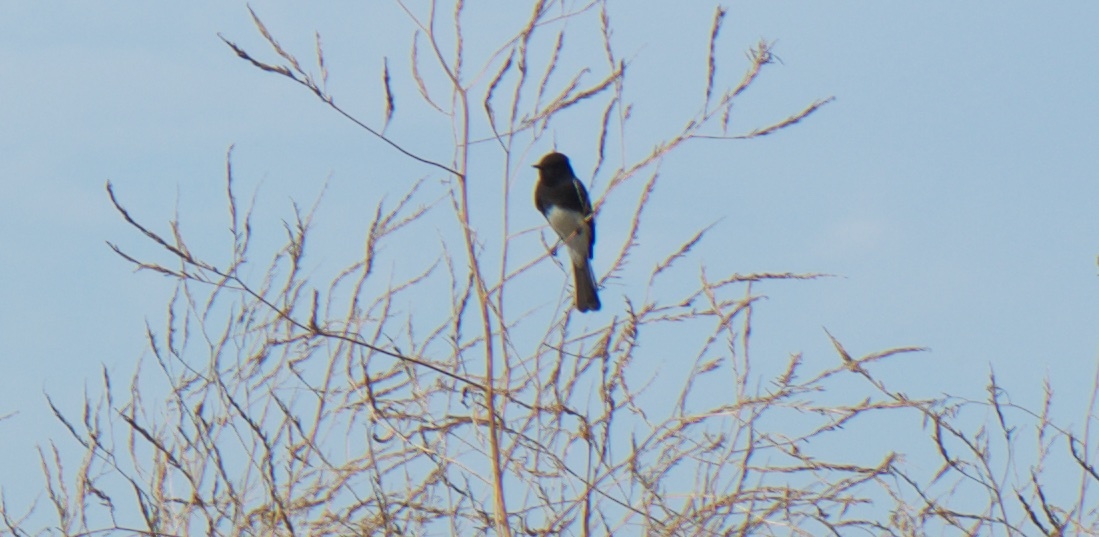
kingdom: Animalia
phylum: Chordata
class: Aves
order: Passeriformes
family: Tyrannidae
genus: Sayornis
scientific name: Sayornis nigricans
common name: Black phoebe
